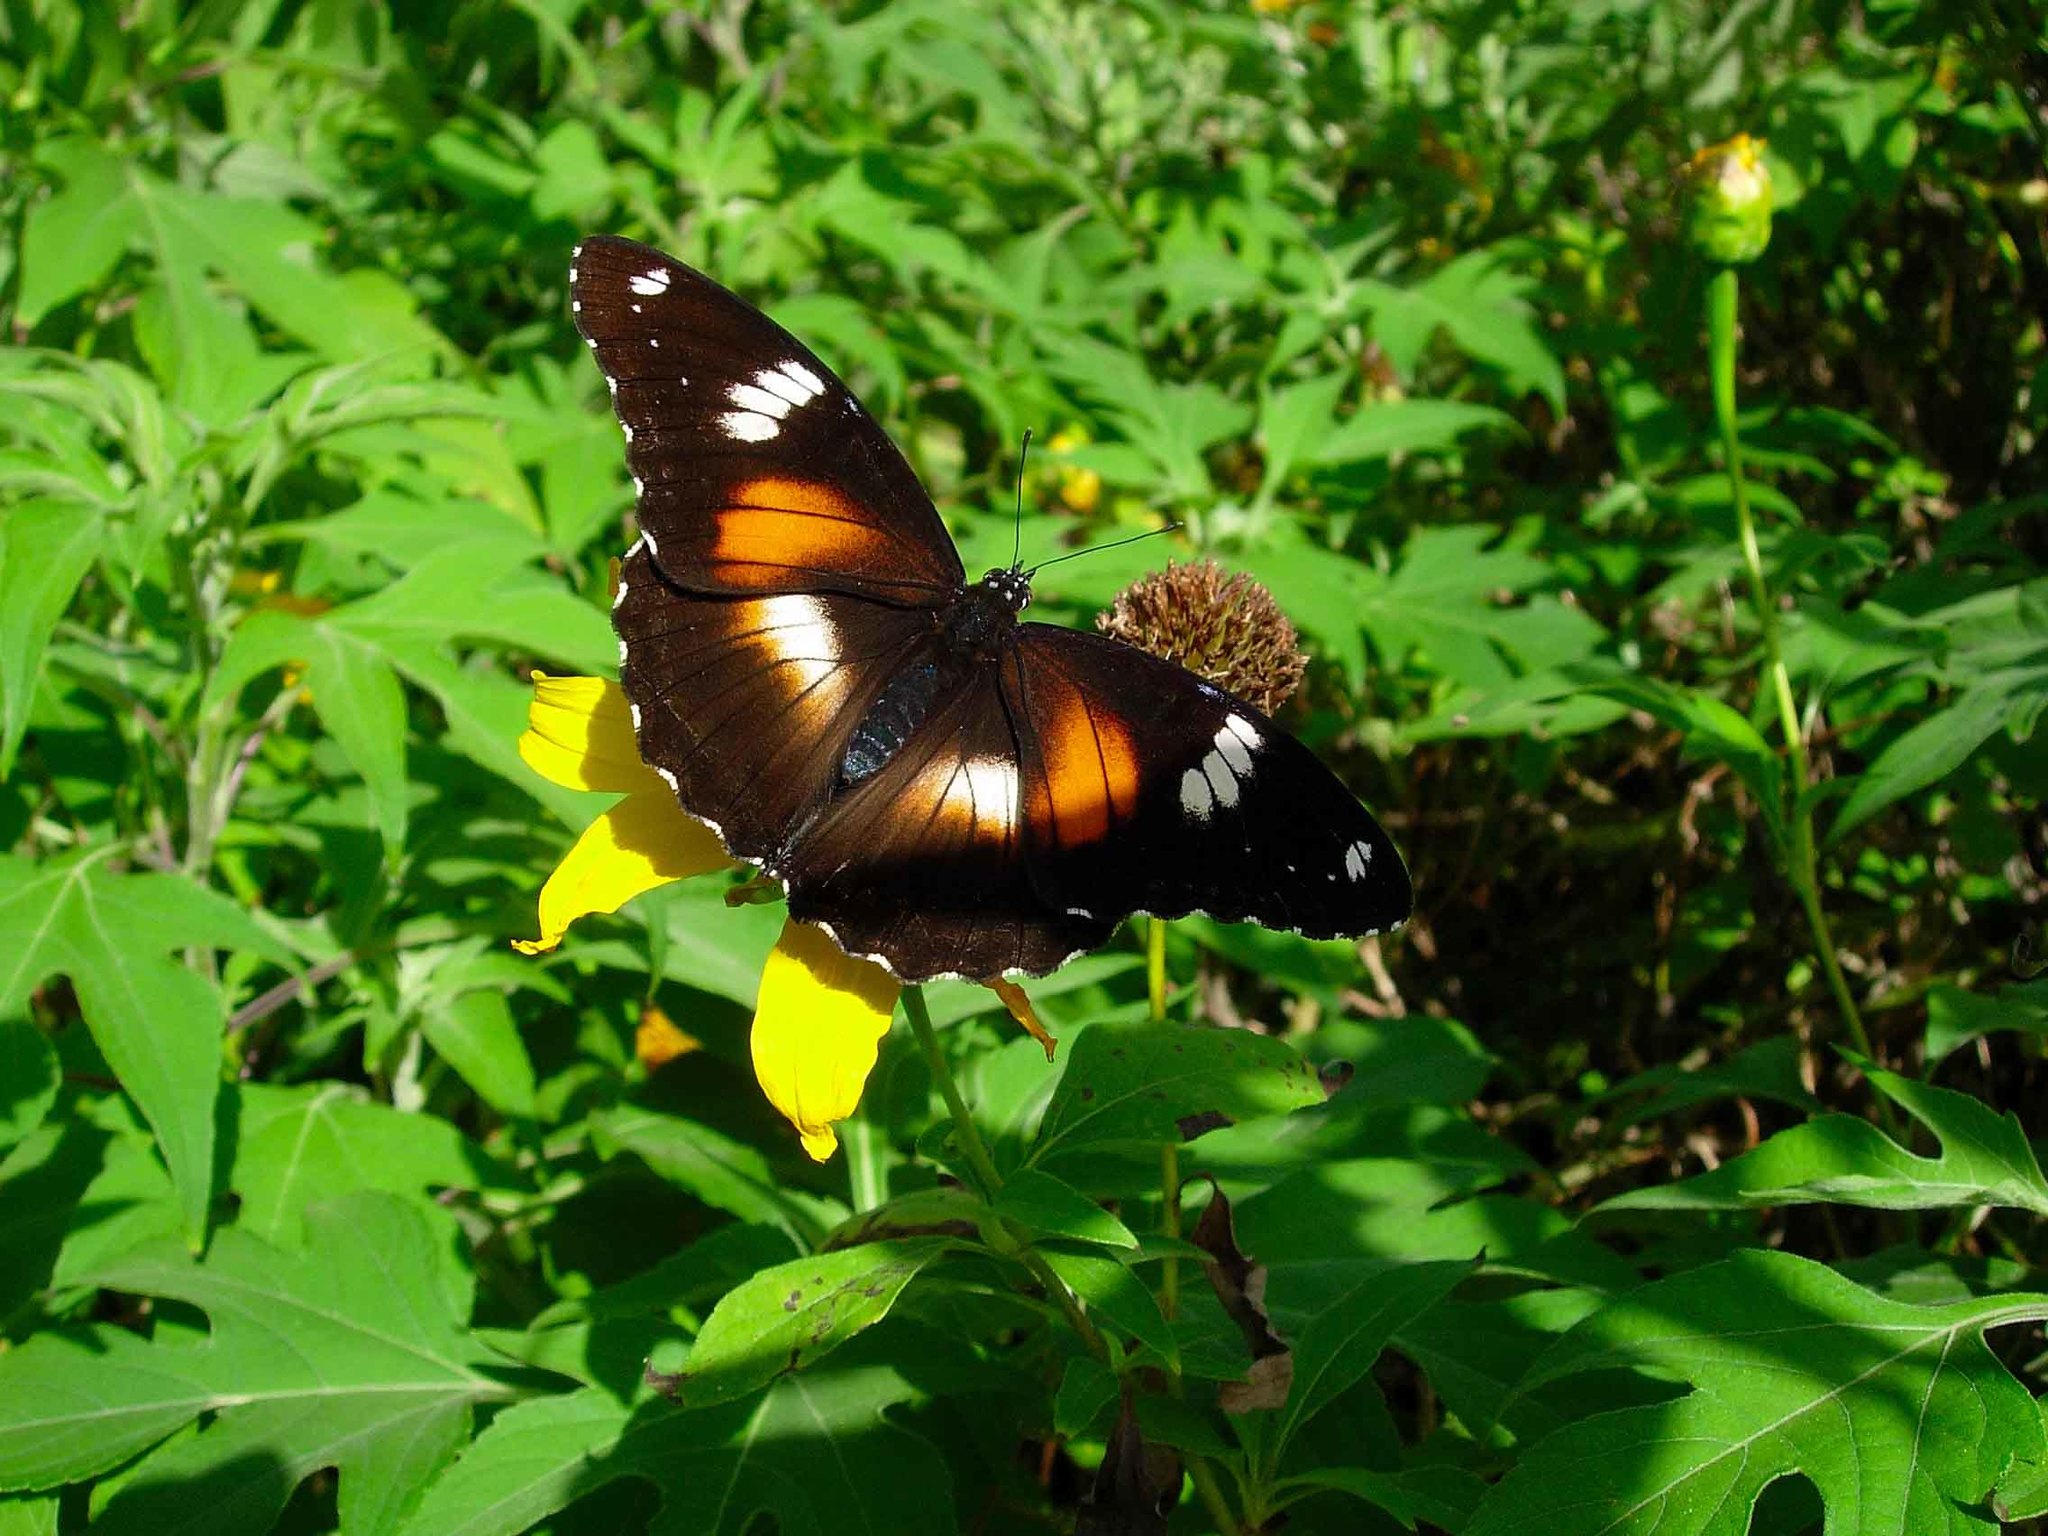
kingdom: Animalia
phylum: Arthropoda
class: Insecta
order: Lepidoptera
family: Nymphalidae
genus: Hypolimnas
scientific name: Hypolimnas bolina
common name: Great eggfly
